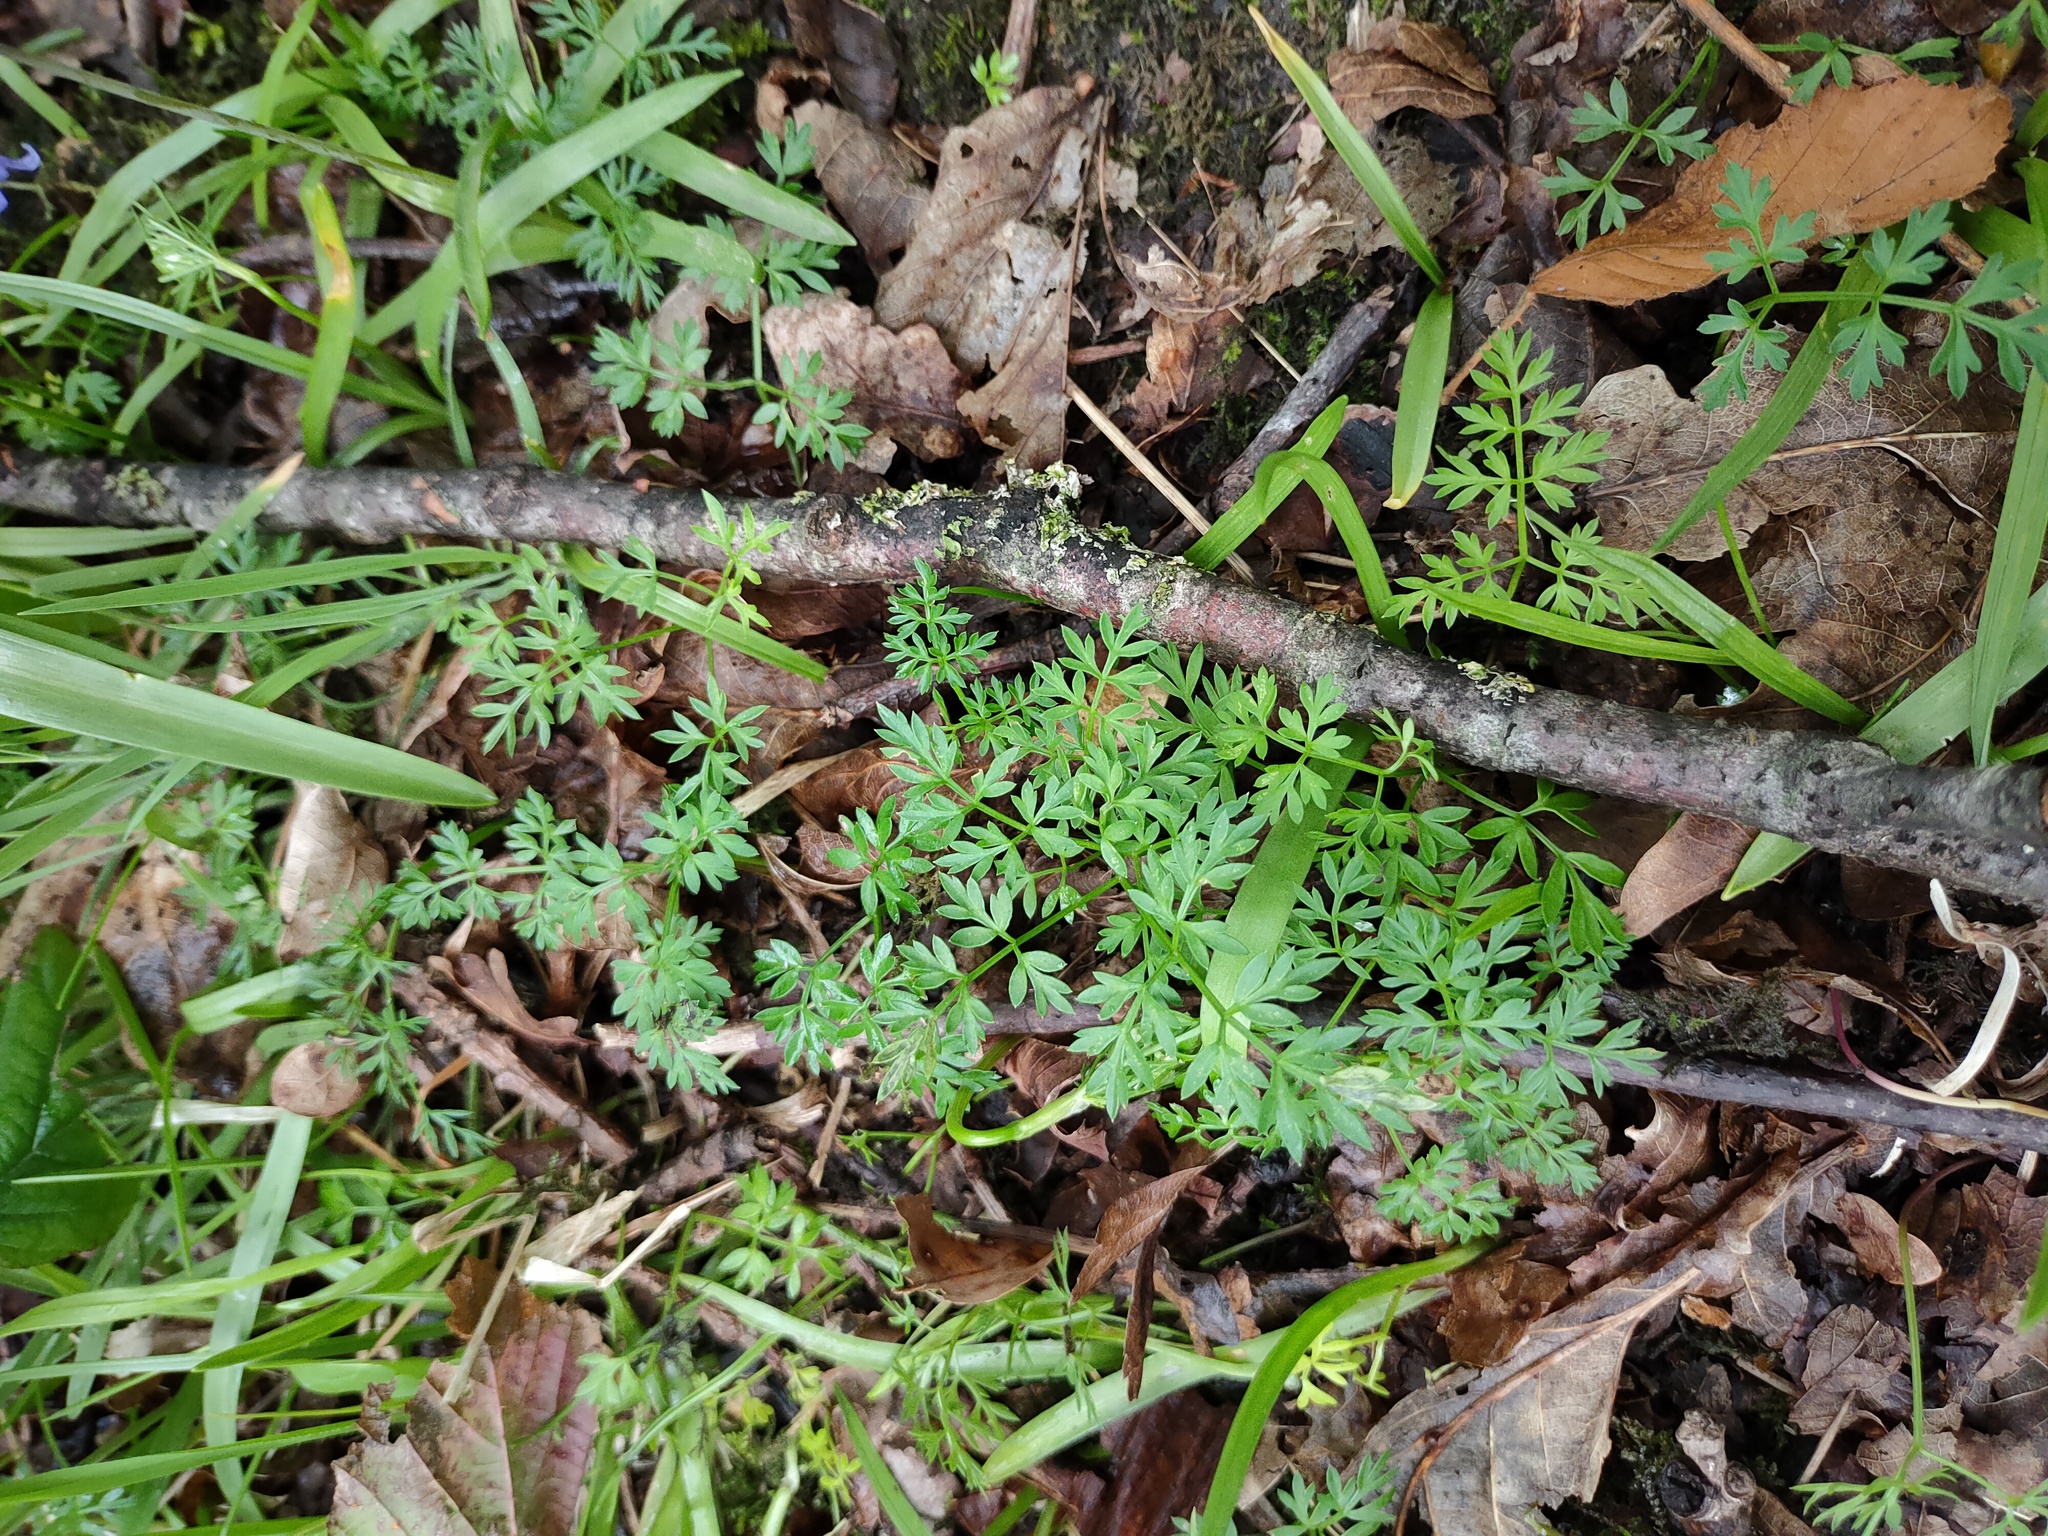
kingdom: Plantae
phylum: Tracheophyta
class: Magnoliopsida
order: Apiales
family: Apiaceae
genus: Conopodium
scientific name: Conopodium majus
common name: Pignut
